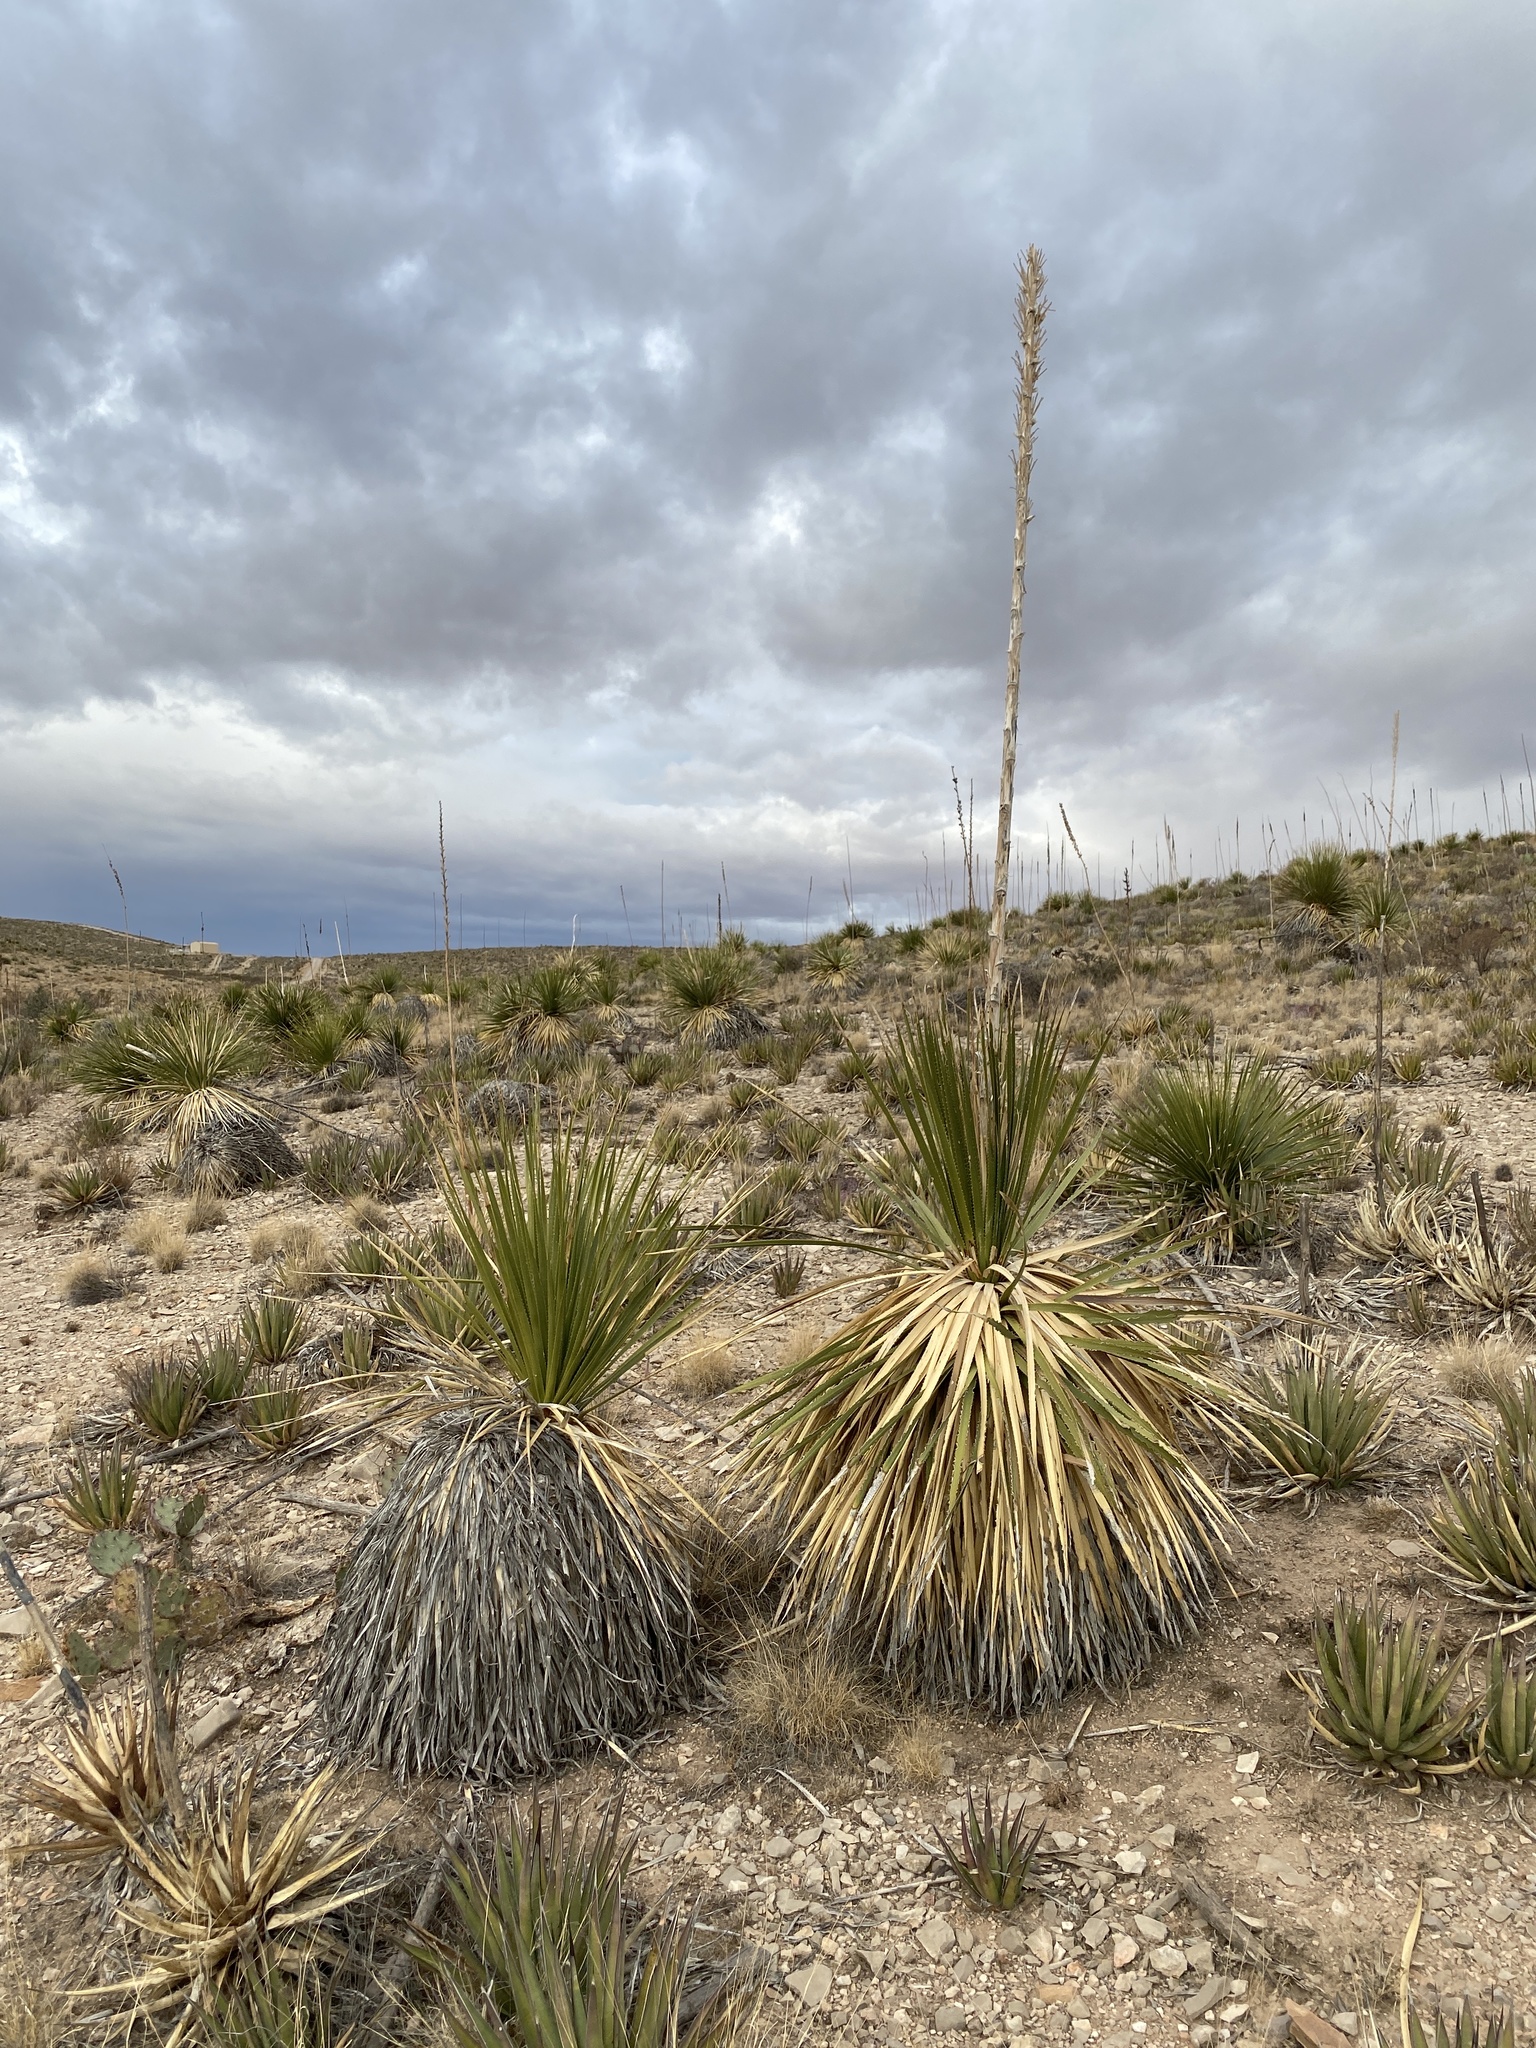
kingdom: Plantae
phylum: Tracheophyta
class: Liliopsida
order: Asparagales
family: Asparagaceae
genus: Dasylirion
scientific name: Dasylirion wheeleri
